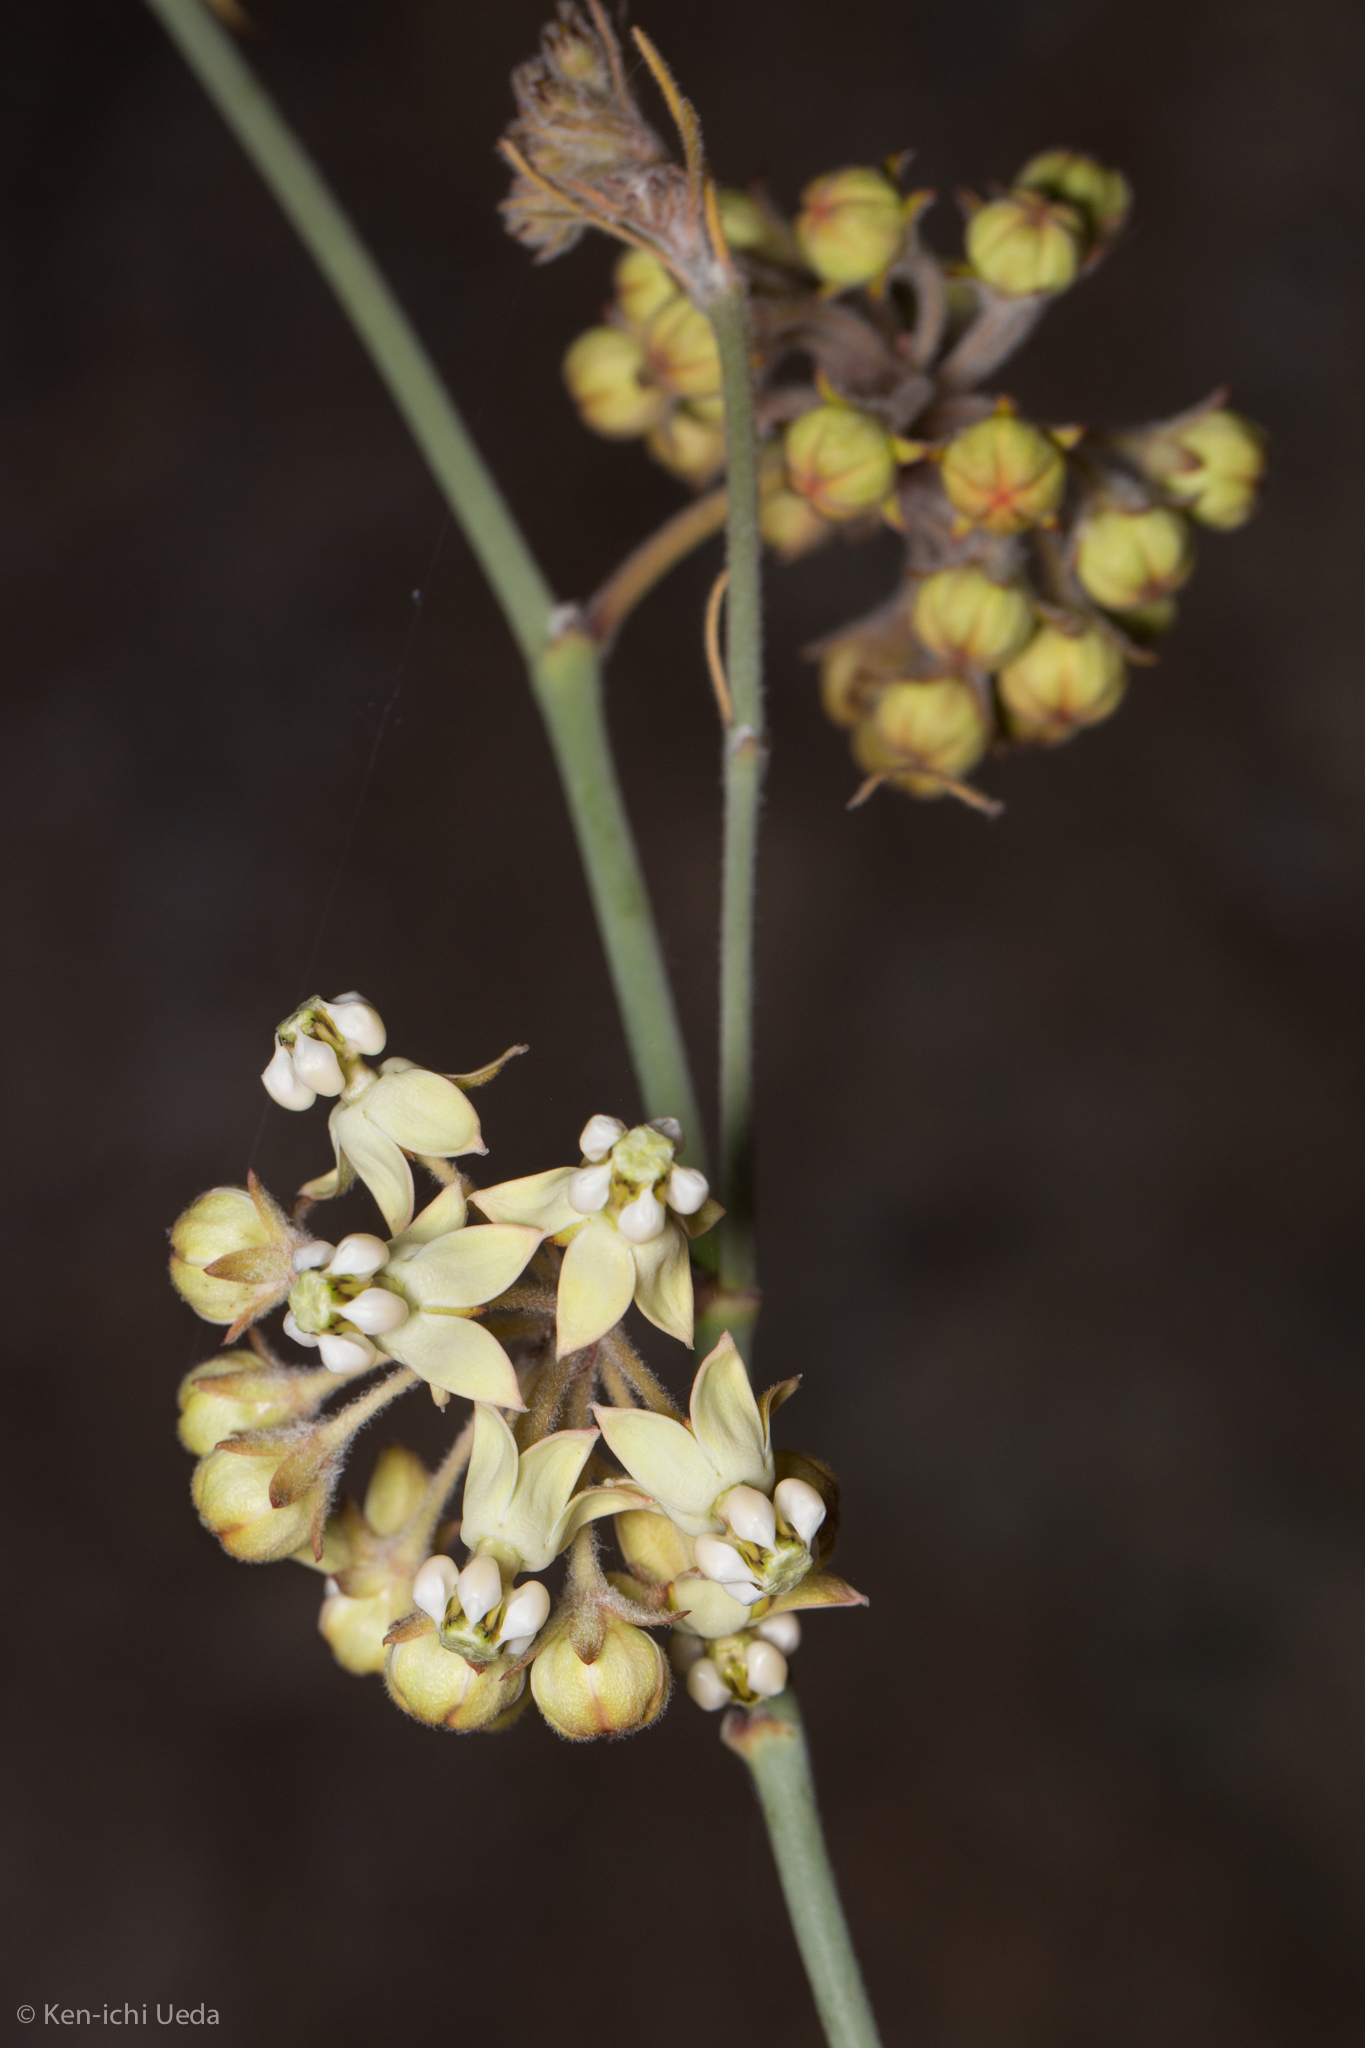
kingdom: Plantae
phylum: Tracheophyta
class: Magnoliopsida
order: Gentianales
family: Apocynaceae
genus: Asclepias
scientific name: Asclepias albicans
